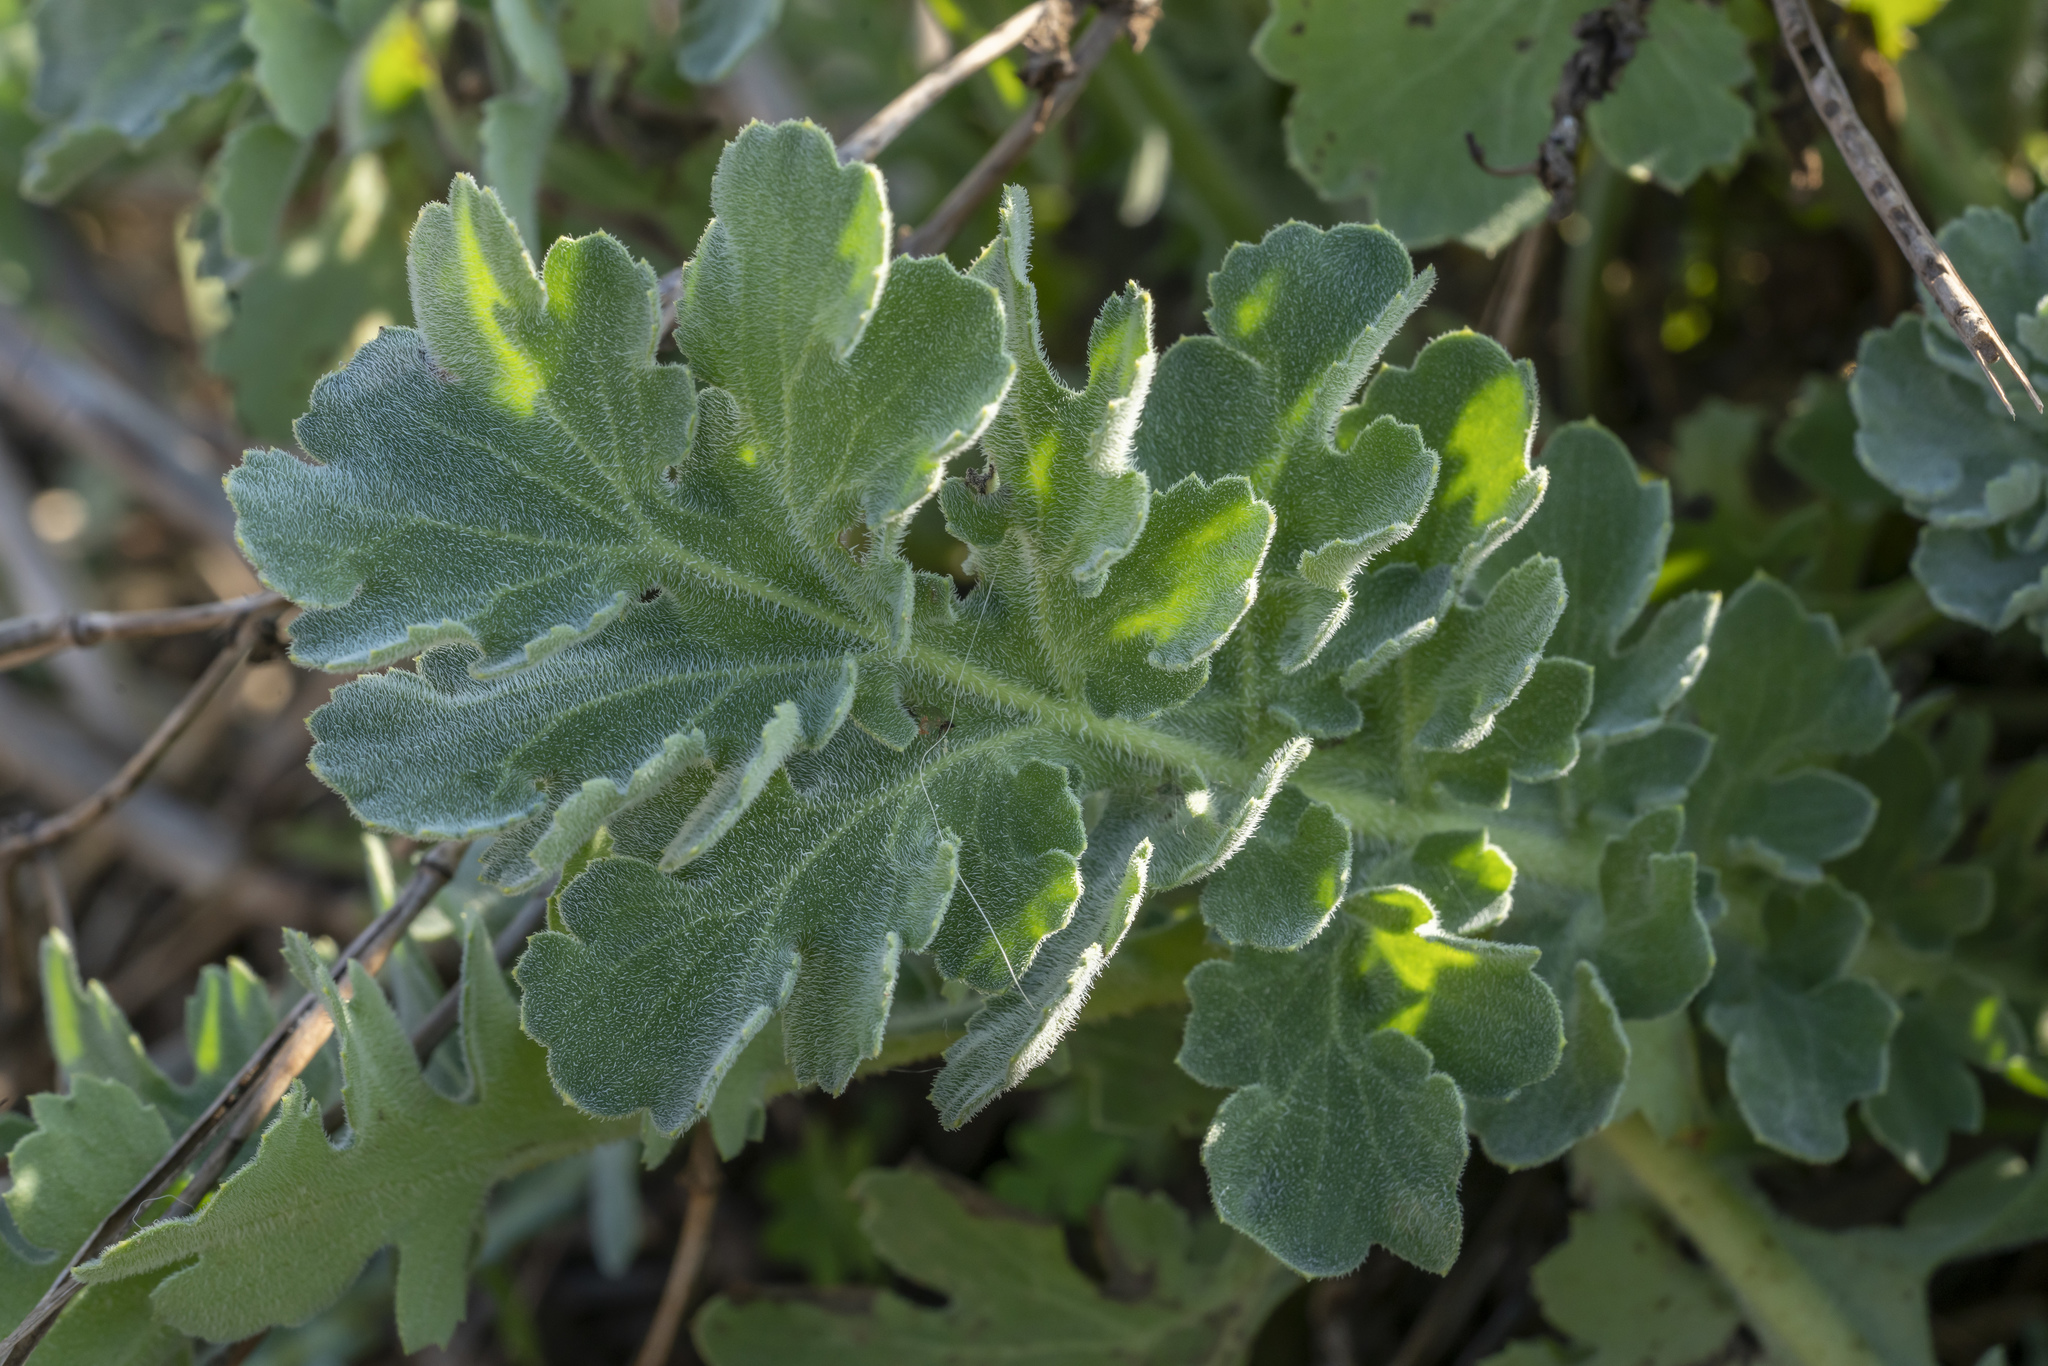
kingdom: Plantae
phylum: Tracheophyta
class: Magnoliopsida
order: Ranunculales
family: Papaveraceae
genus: Glaucium
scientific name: Glaucium flavum
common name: Yellow horned-poppy
